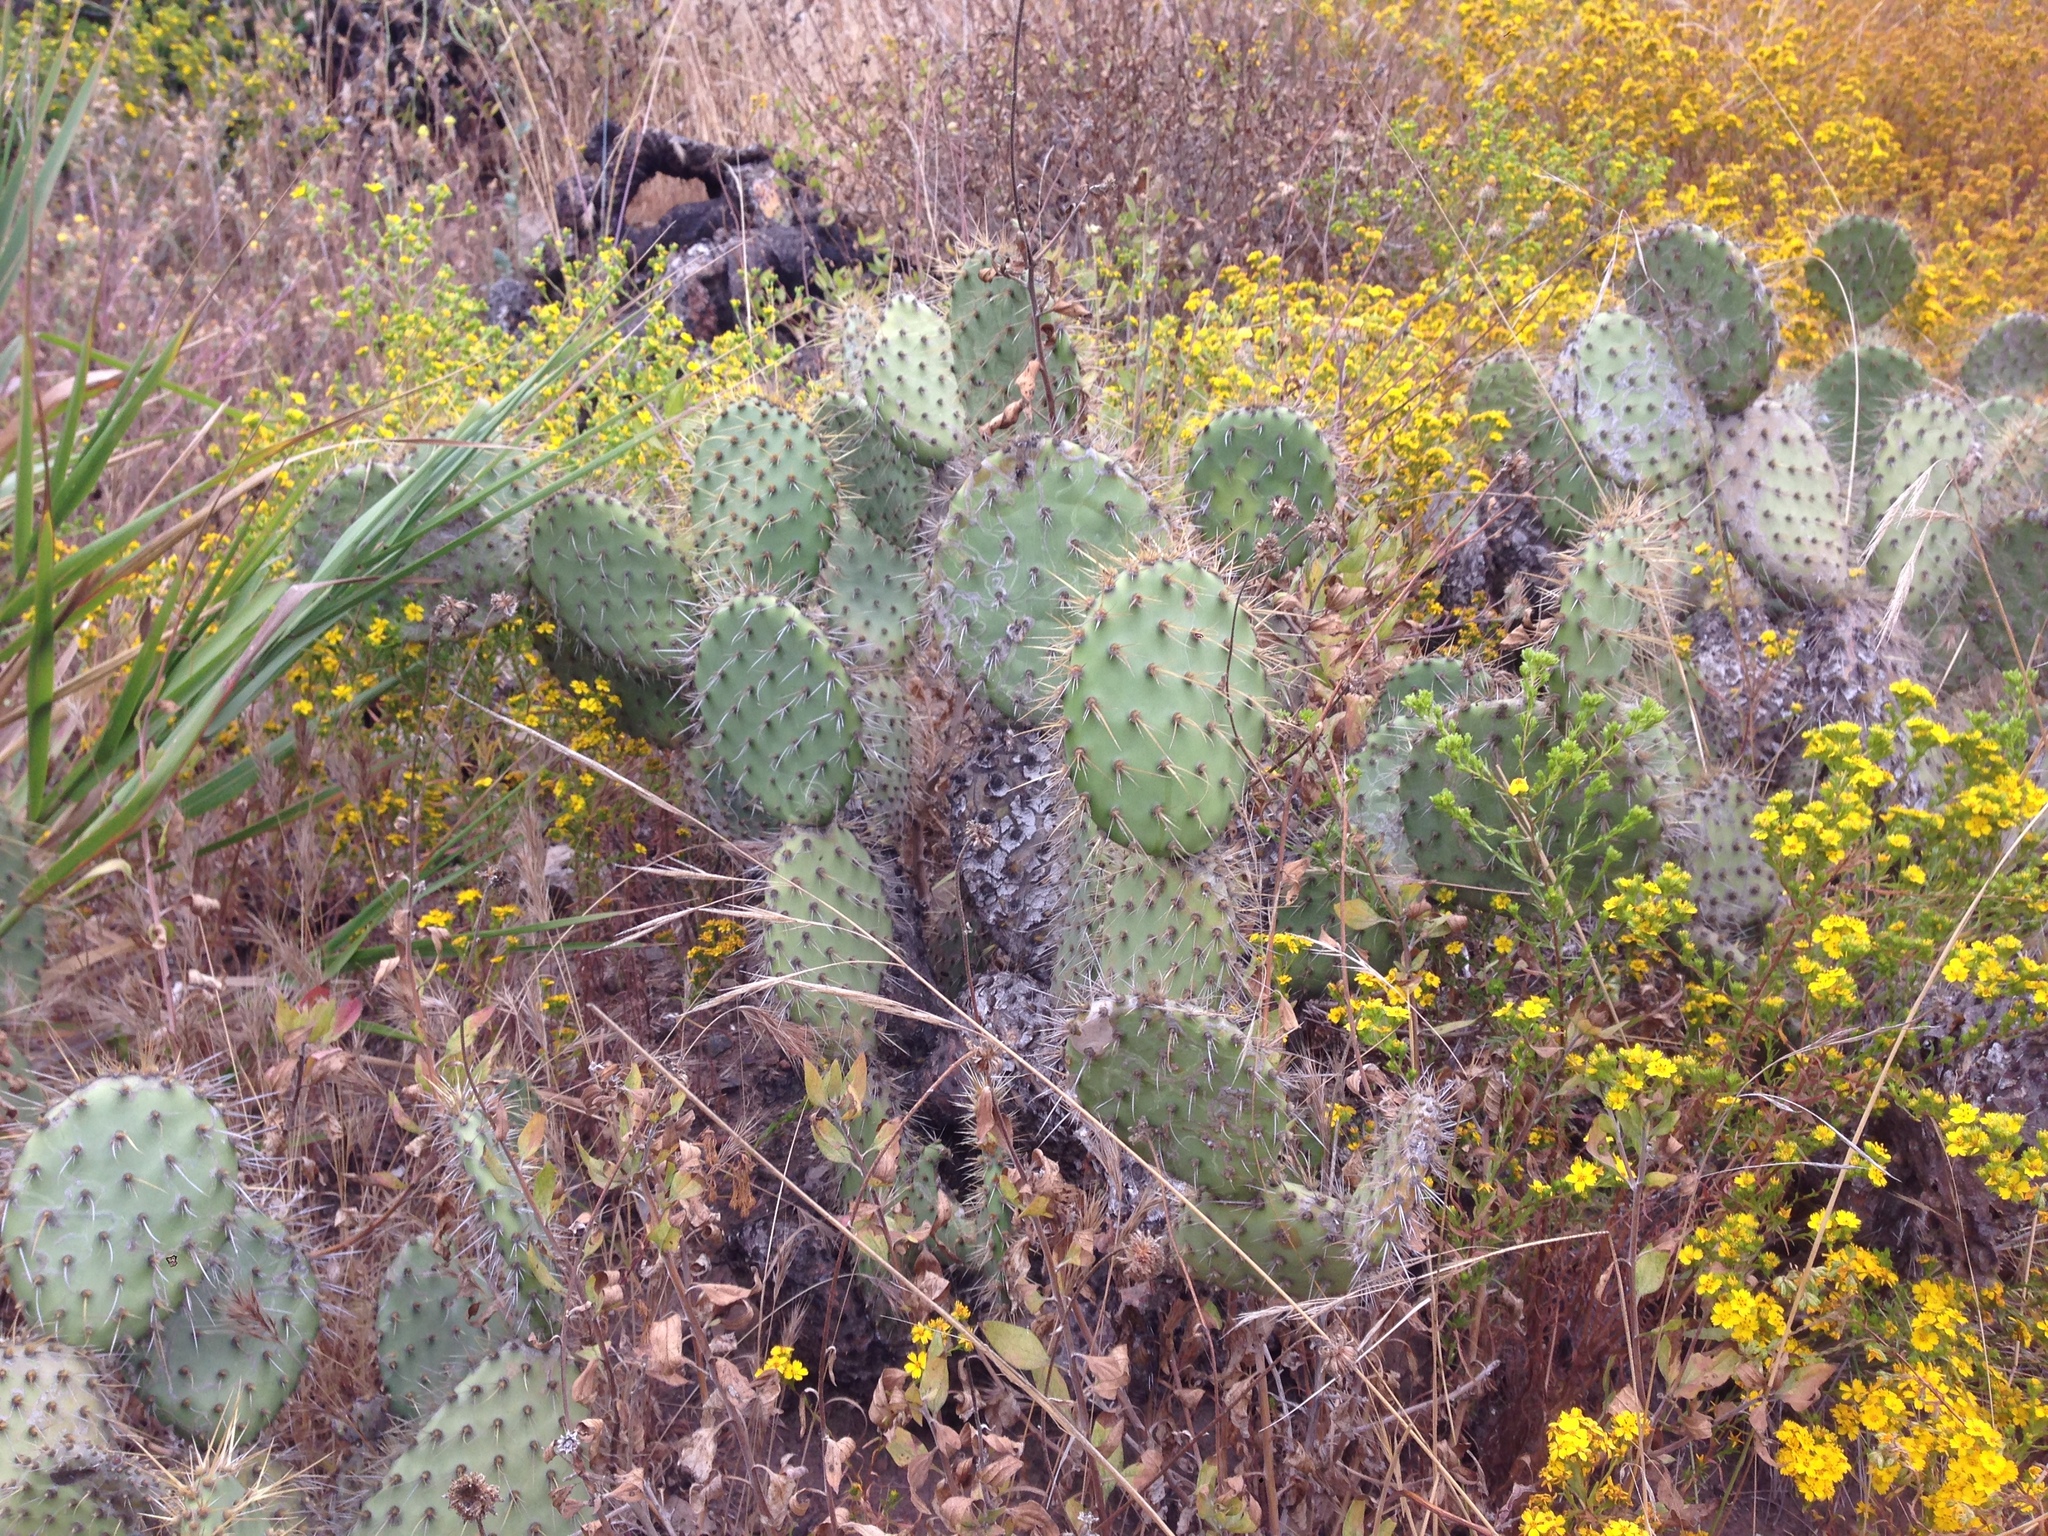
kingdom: Plantae
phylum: Tracheophyta
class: Magnoliopsida
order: Caryophyllales
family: Cactaceae
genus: Opuntia
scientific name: Opuntia oricola
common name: Chaparral prickly-pear
